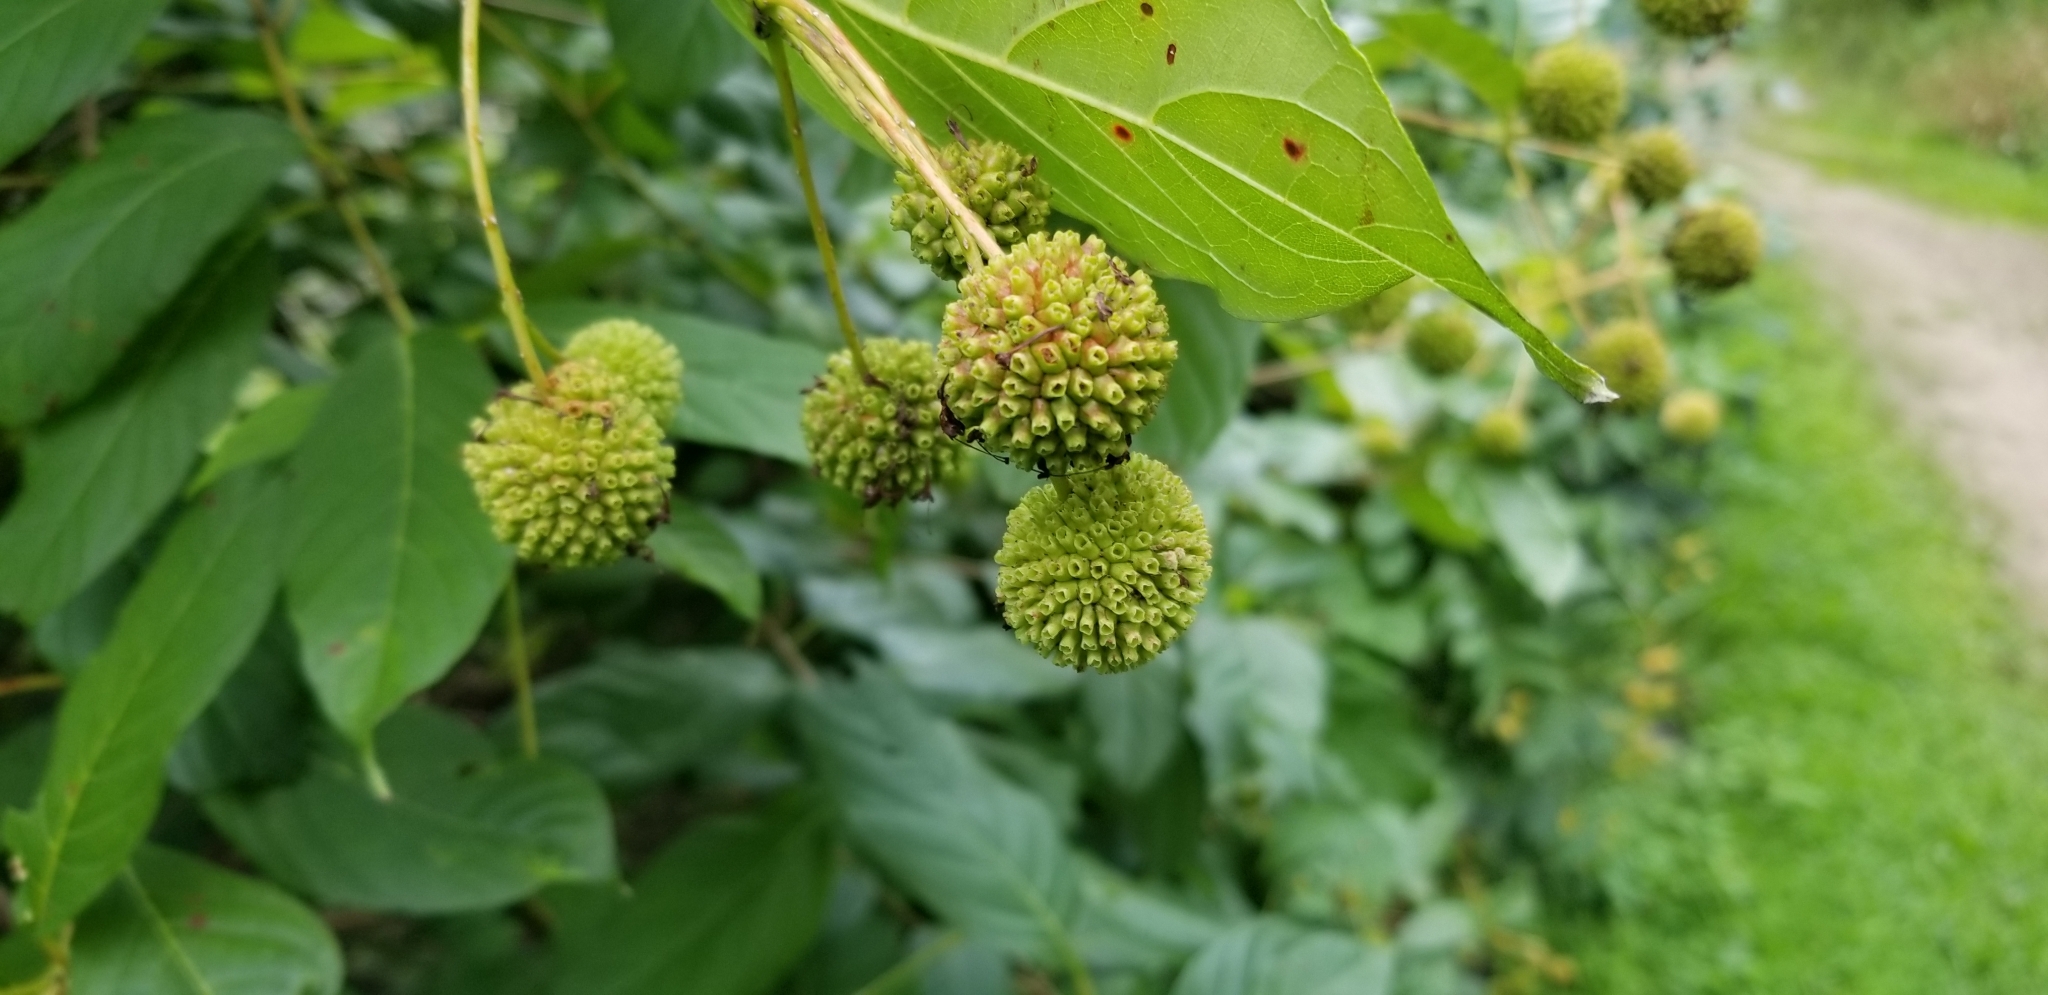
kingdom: Plantae
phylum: Tracheophyta
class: Magnoliopsida
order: Gentianales
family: Rubiaceae
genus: Cephalanthus
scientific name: Cephalanthus occidentalis
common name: Button-willow
